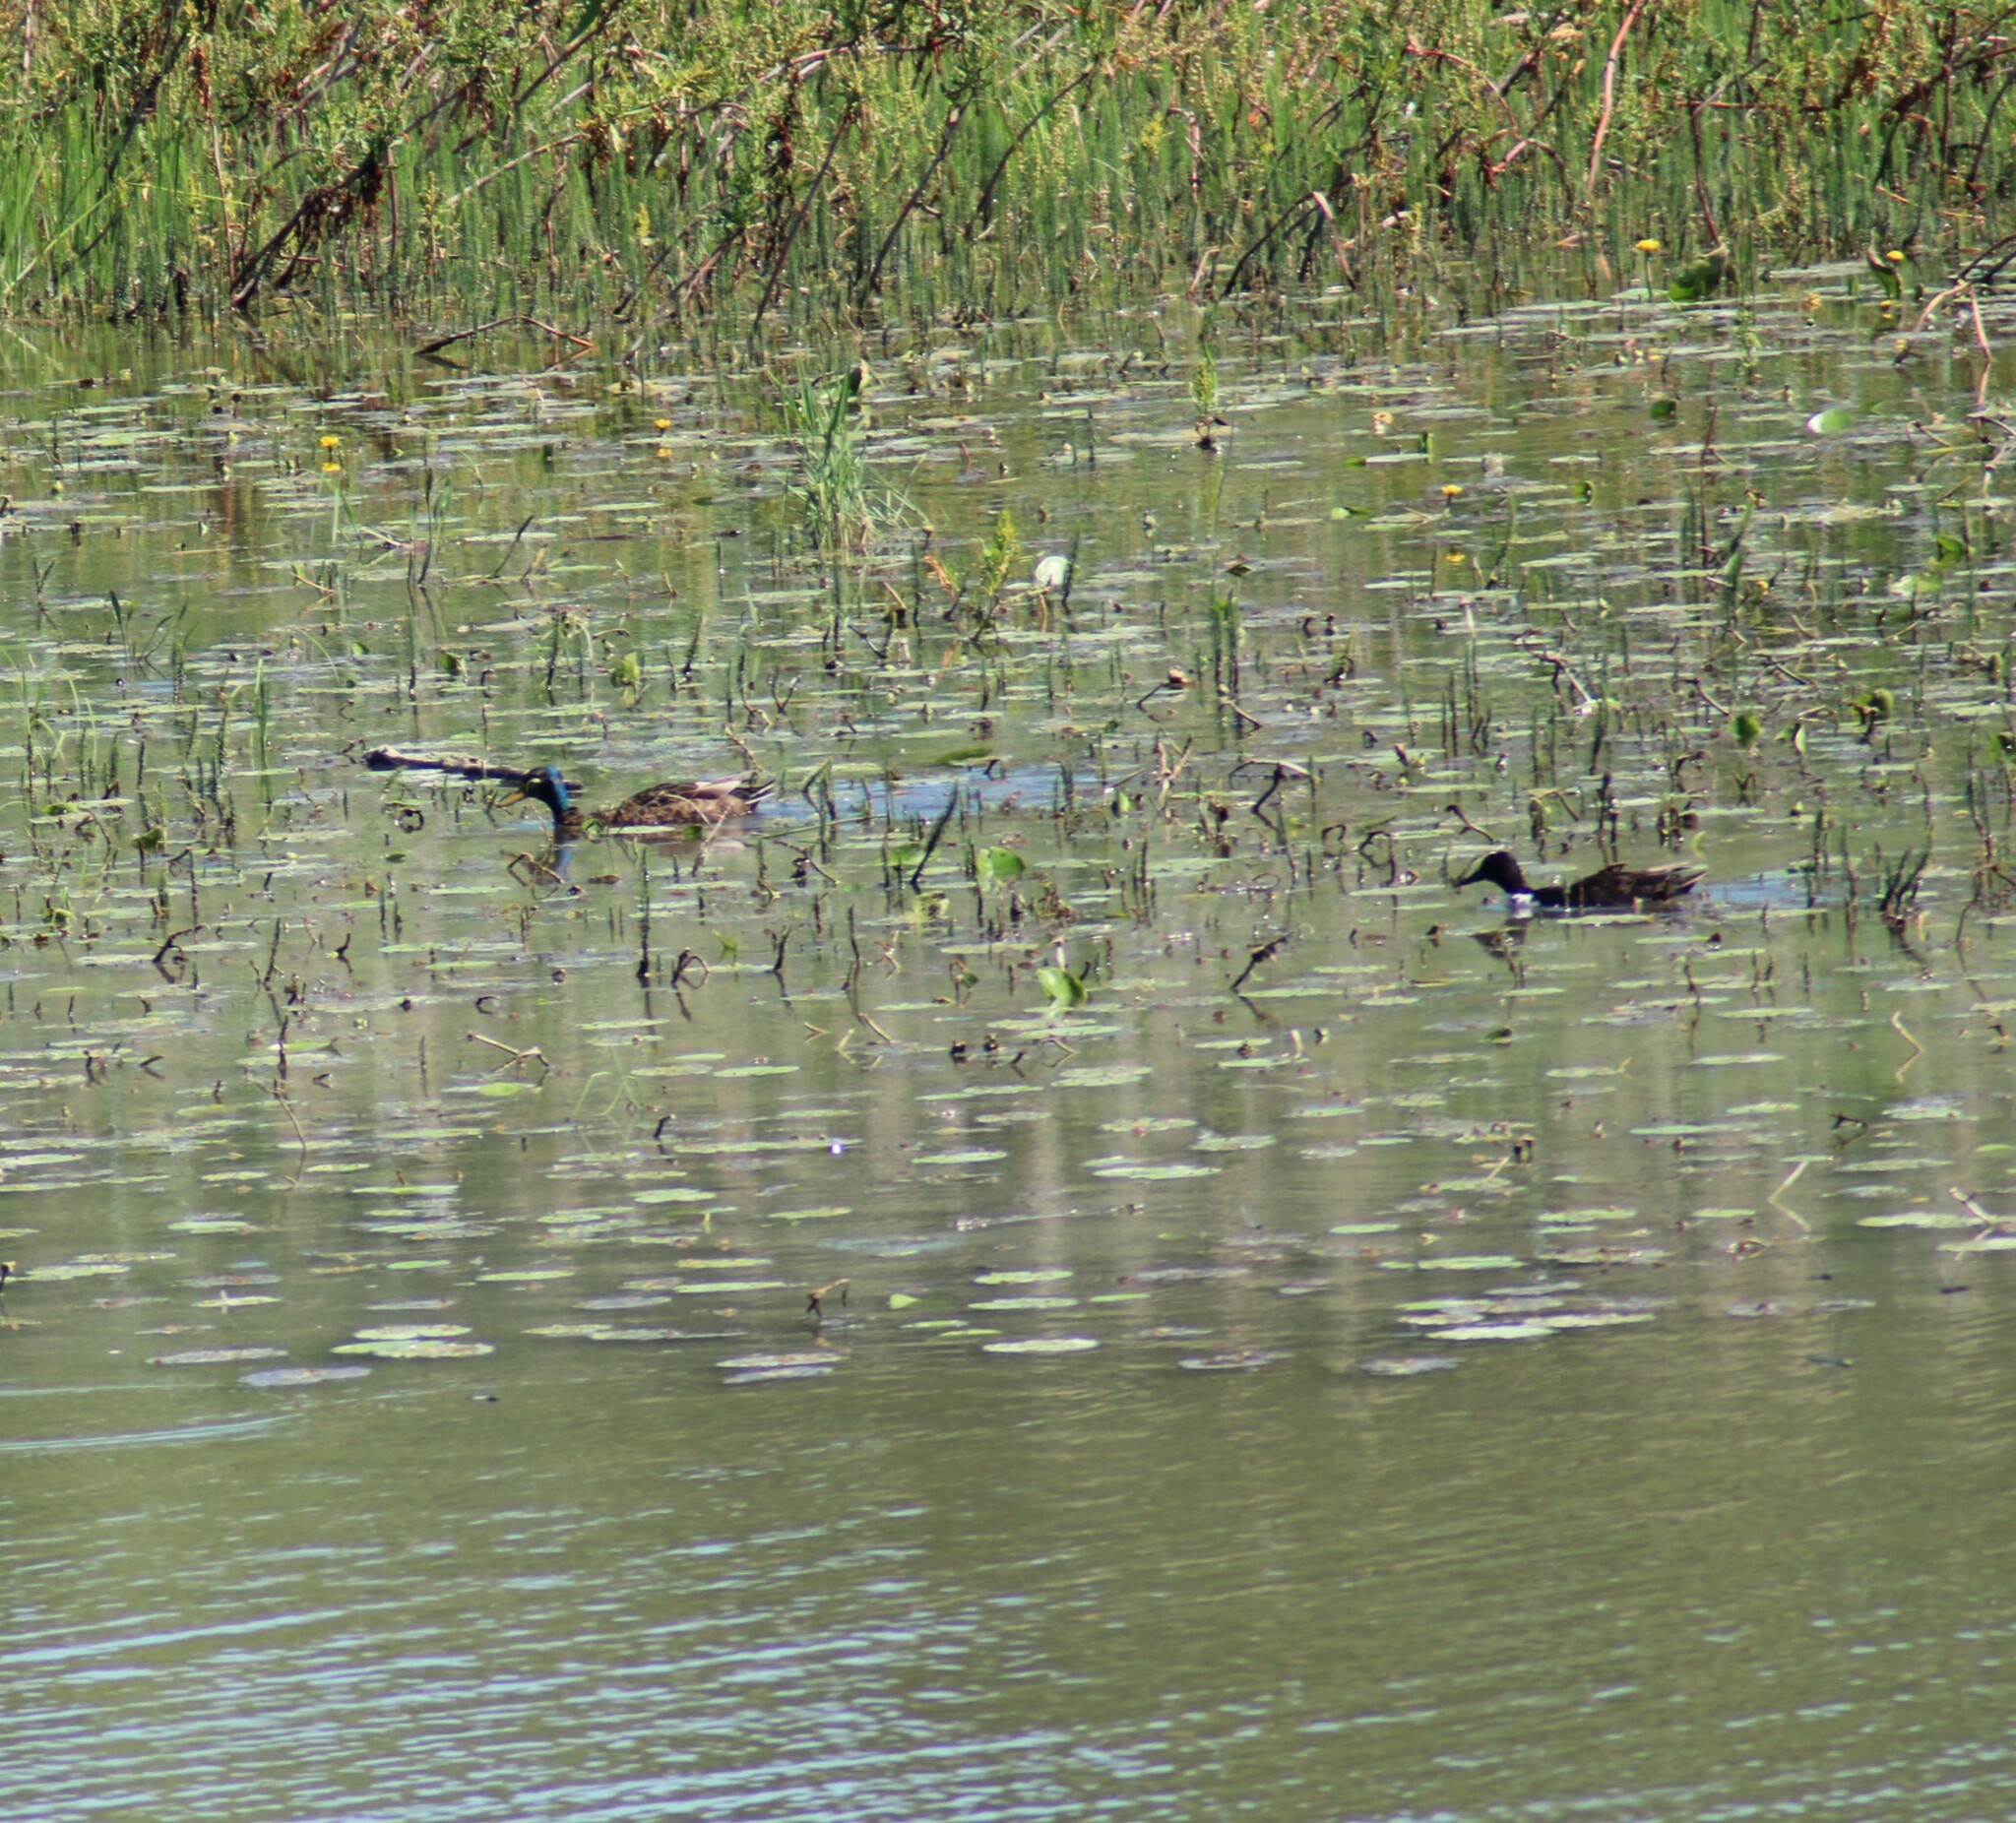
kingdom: Animalia
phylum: Chordata
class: Aves
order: Anseriformes
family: Anatidae
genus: Anas
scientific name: Anas platyrhynchos
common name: Mallard
